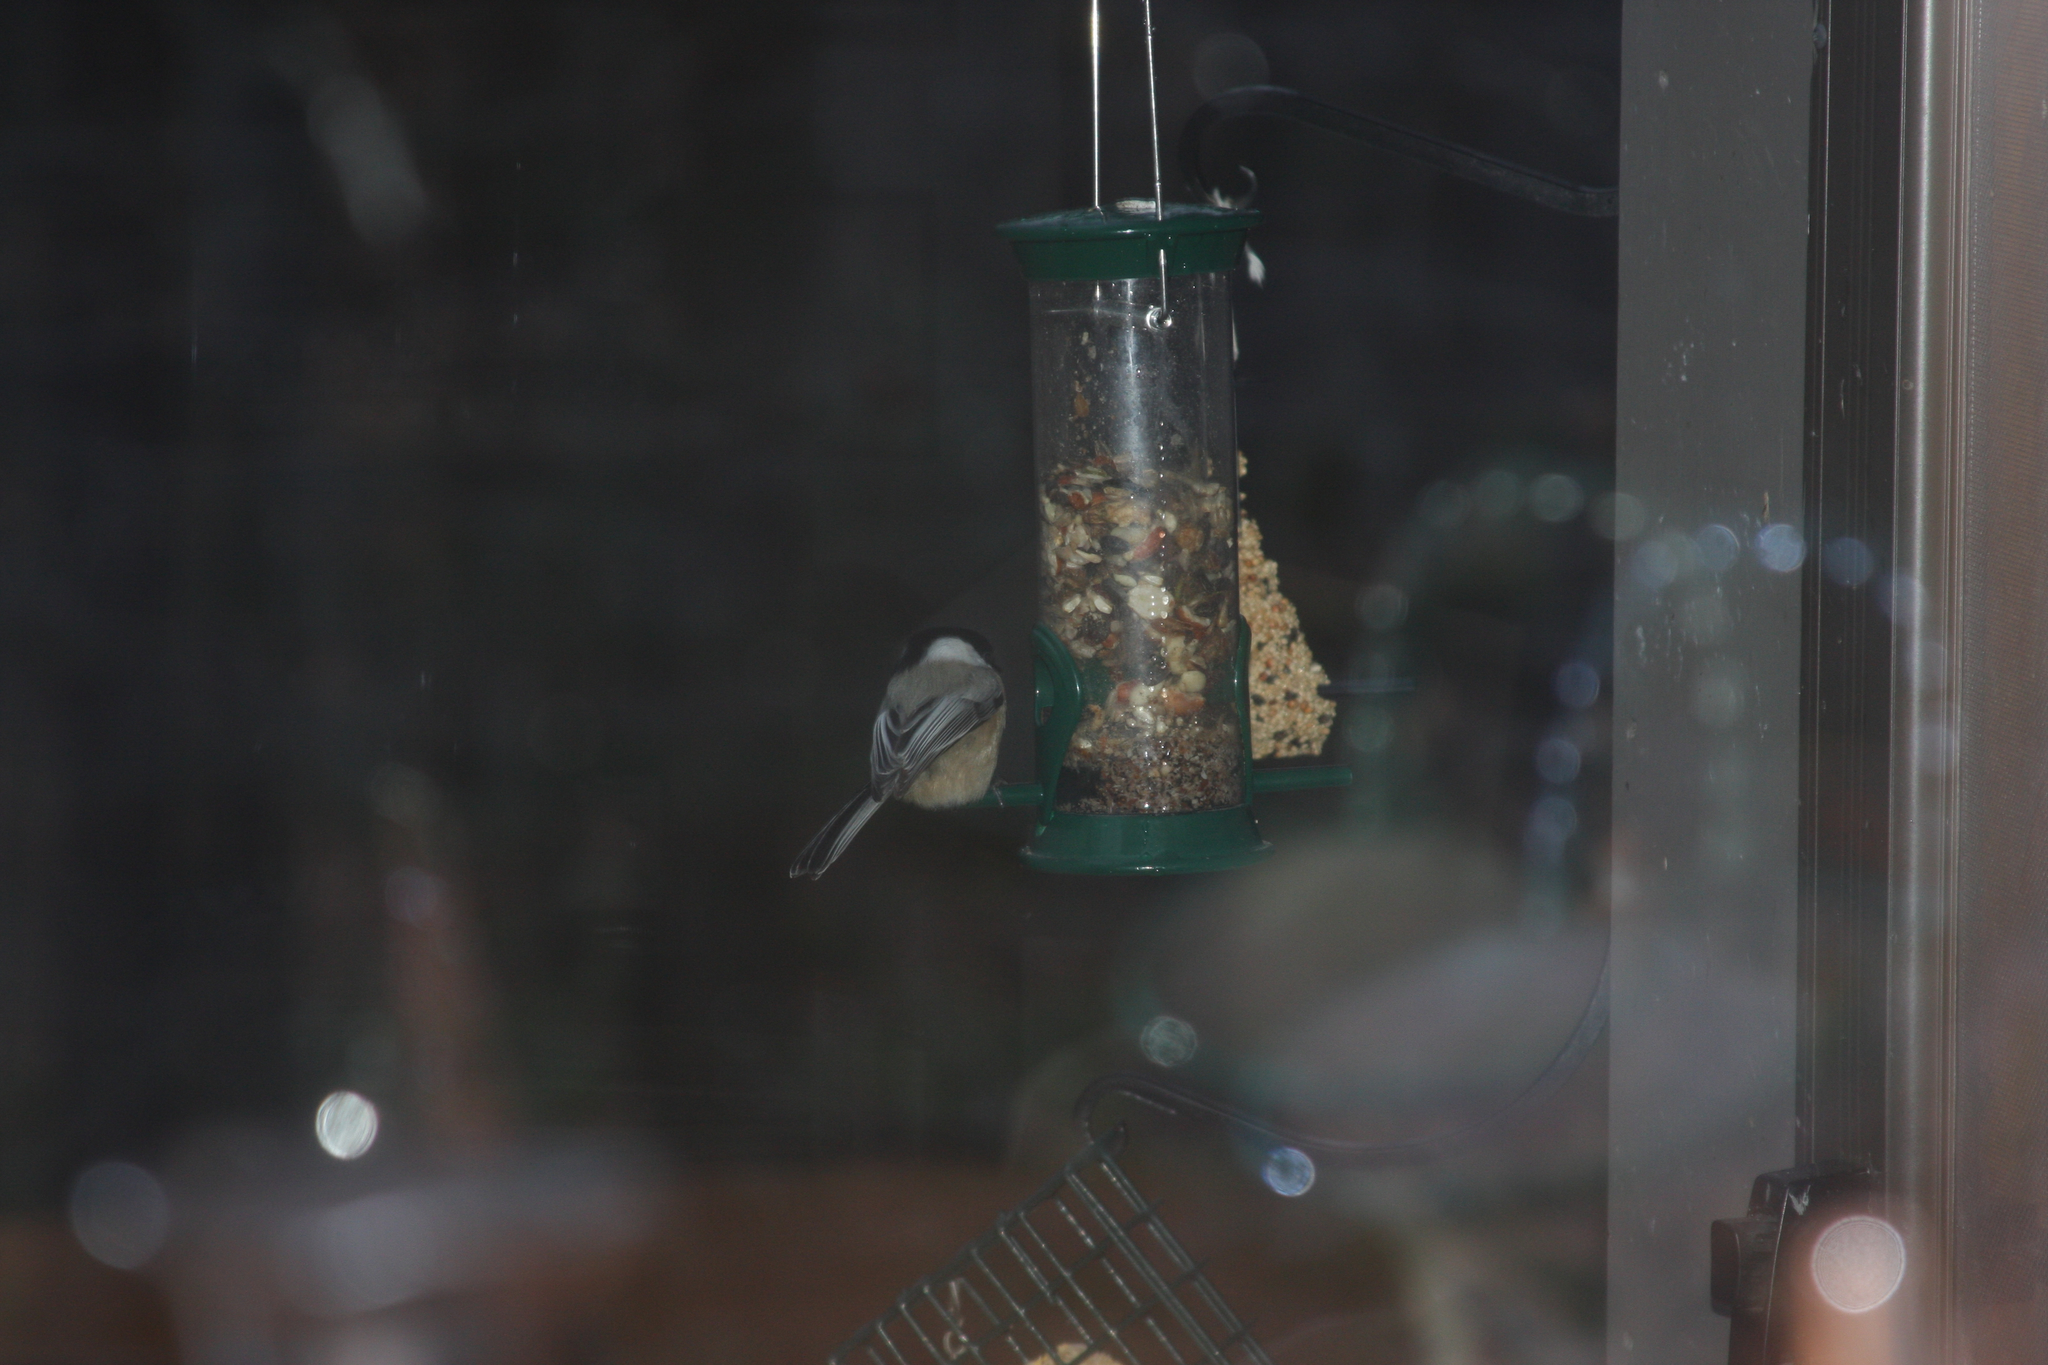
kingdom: Animalia
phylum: Chordata
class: Aves
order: Passeriformes
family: Paridae
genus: Poecile
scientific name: Poecile atricapillus
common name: Black-capped chickadee
